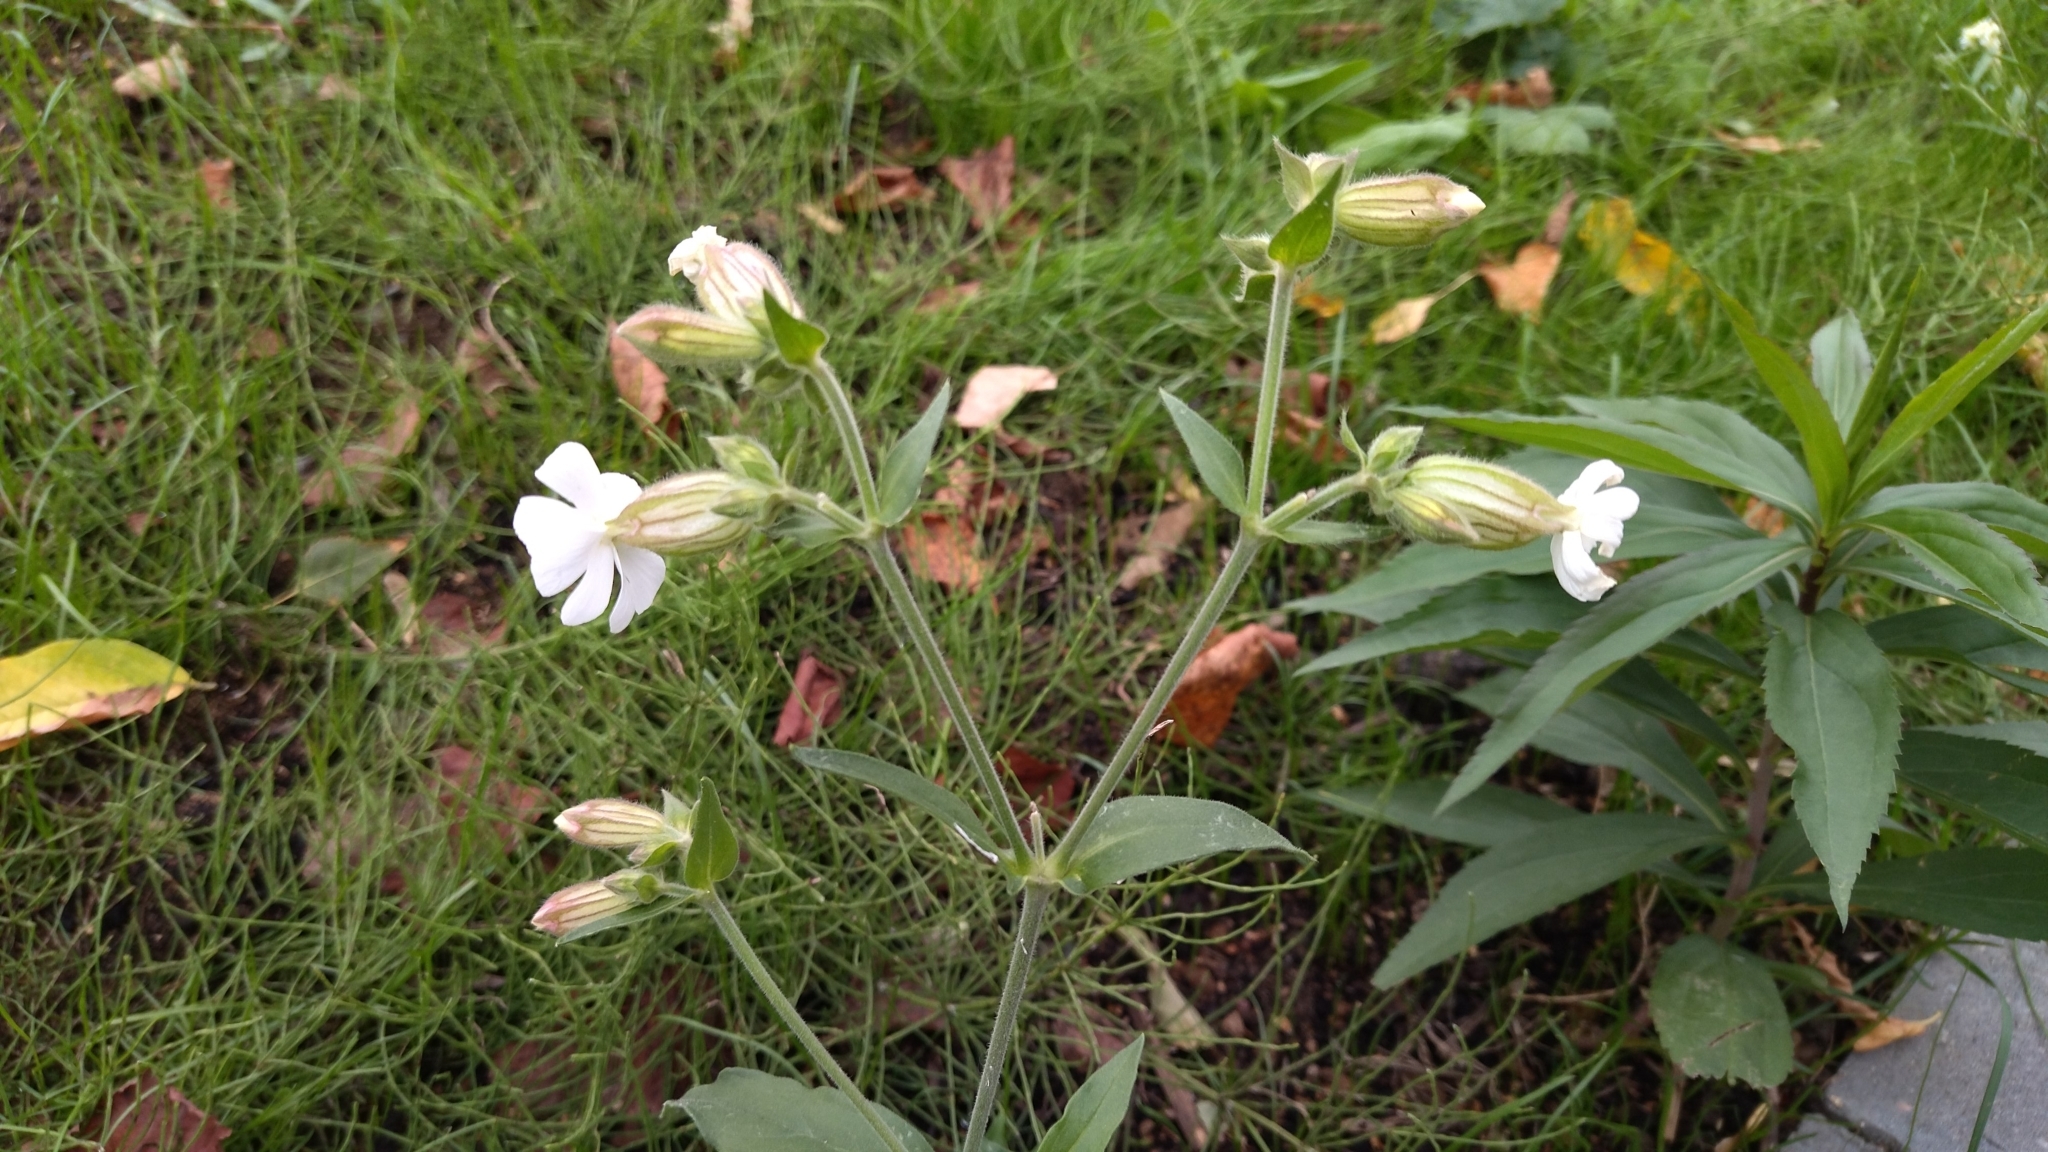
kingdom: Plantae
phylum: Tracheophyta
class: Magnoliopsida
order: Caryophyllales
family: Caryophyllaceae
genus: Silene
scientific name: Silene latifolia
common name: White campion
